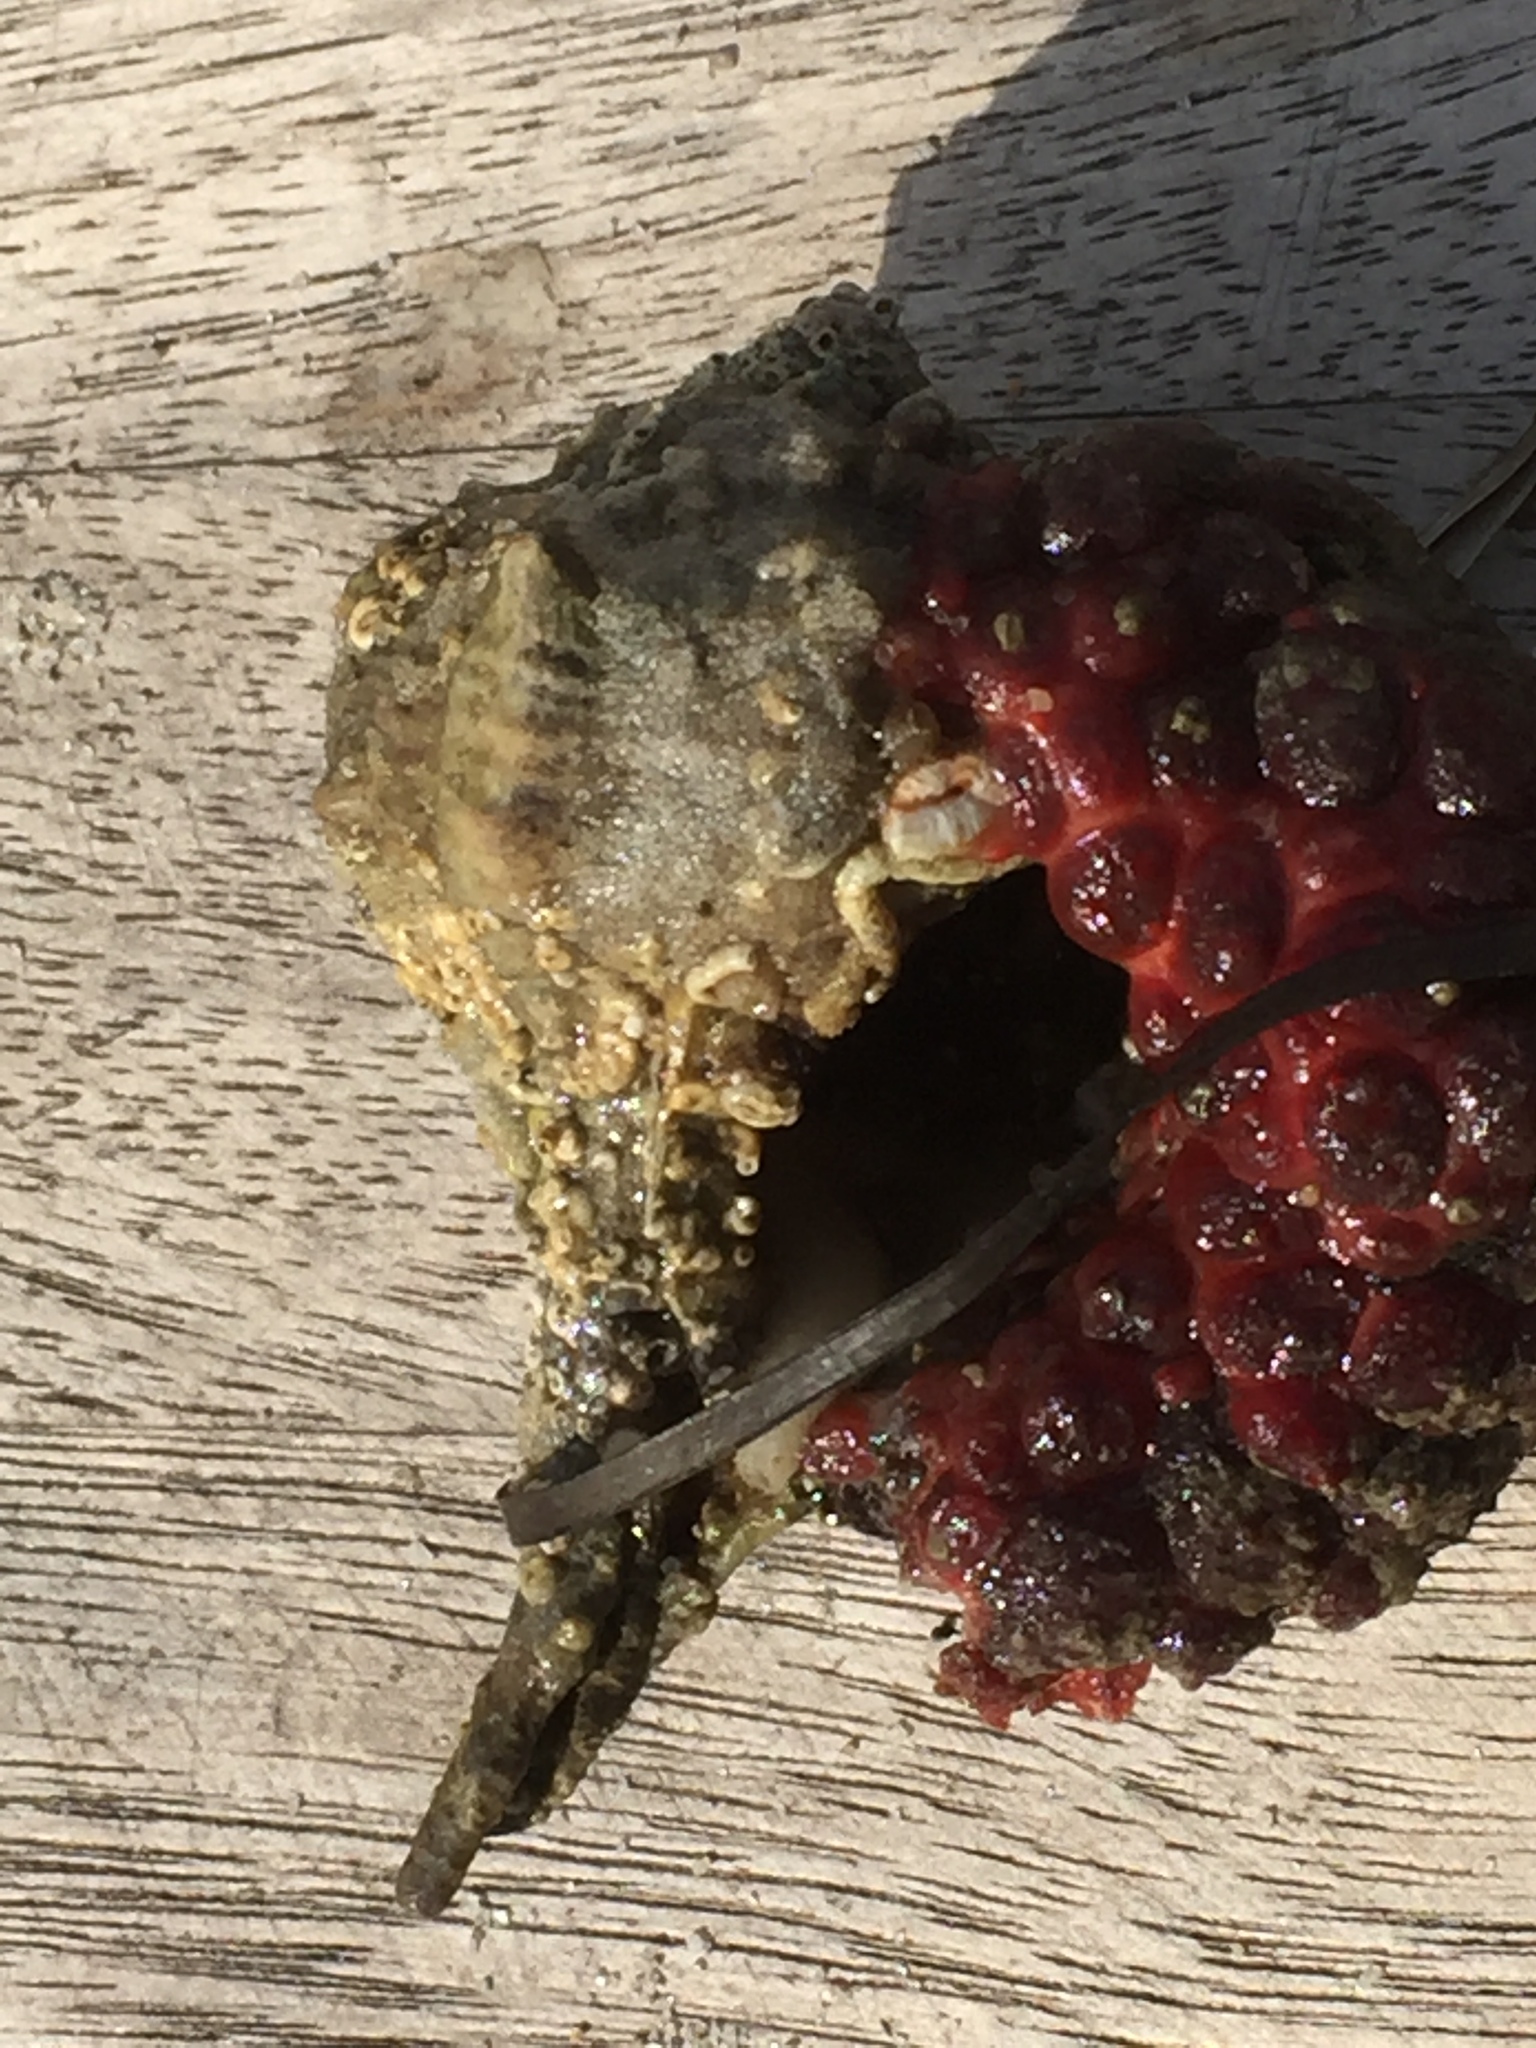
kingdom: Animalia
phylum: Chordata
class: Ascidiacea
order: Stolidobranchia
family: Styelidae
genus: Distomus
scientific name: Distomus variolosus
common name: Lesser gooseberry sea squirt
